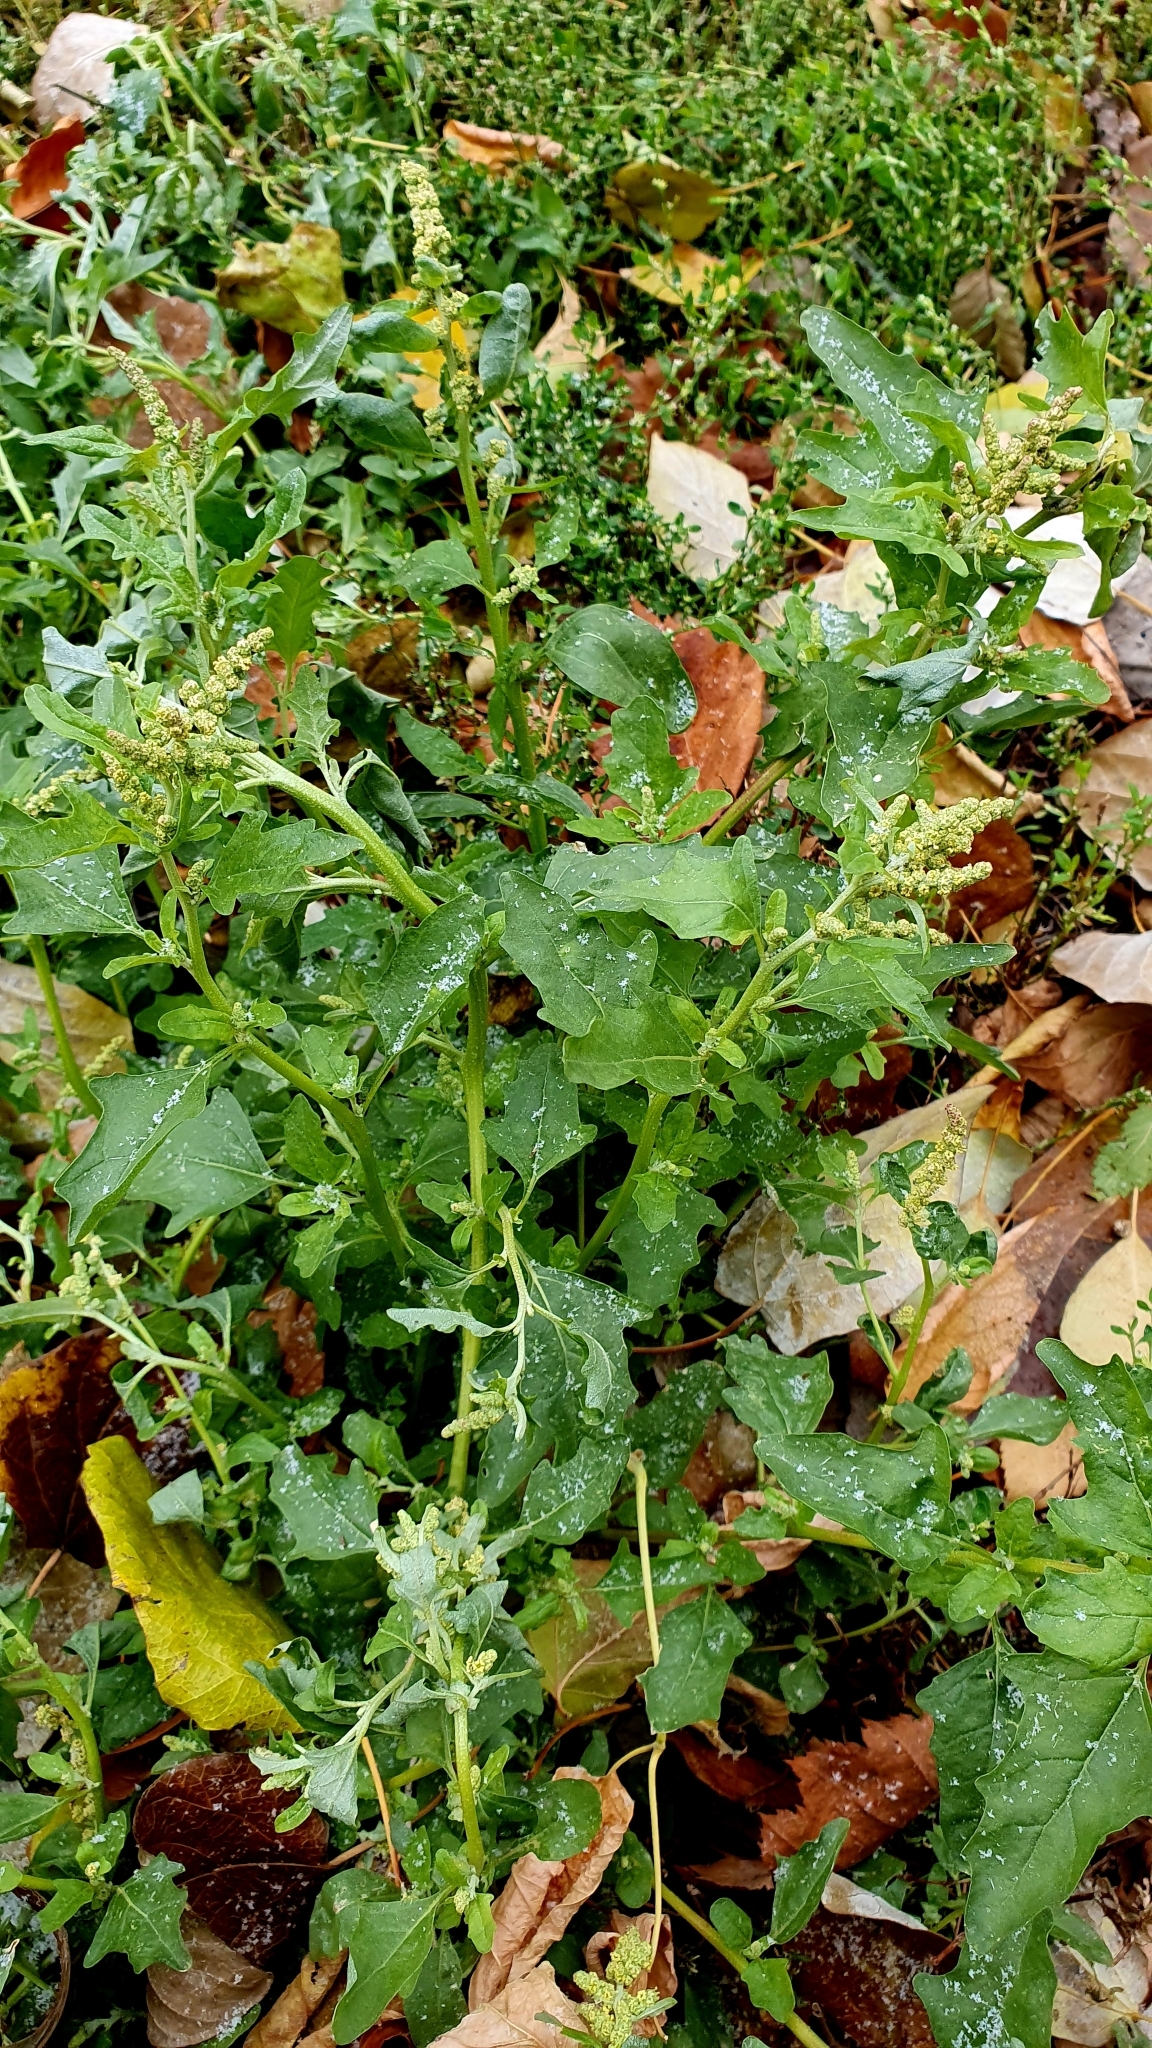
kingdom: Plantae
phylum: Tracheophyta
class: Magnoliopsida
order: Caryophyllales
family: Amaranthaceae
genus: Atriplex
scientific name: Atriplex tatarica
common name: Tatarian orache
